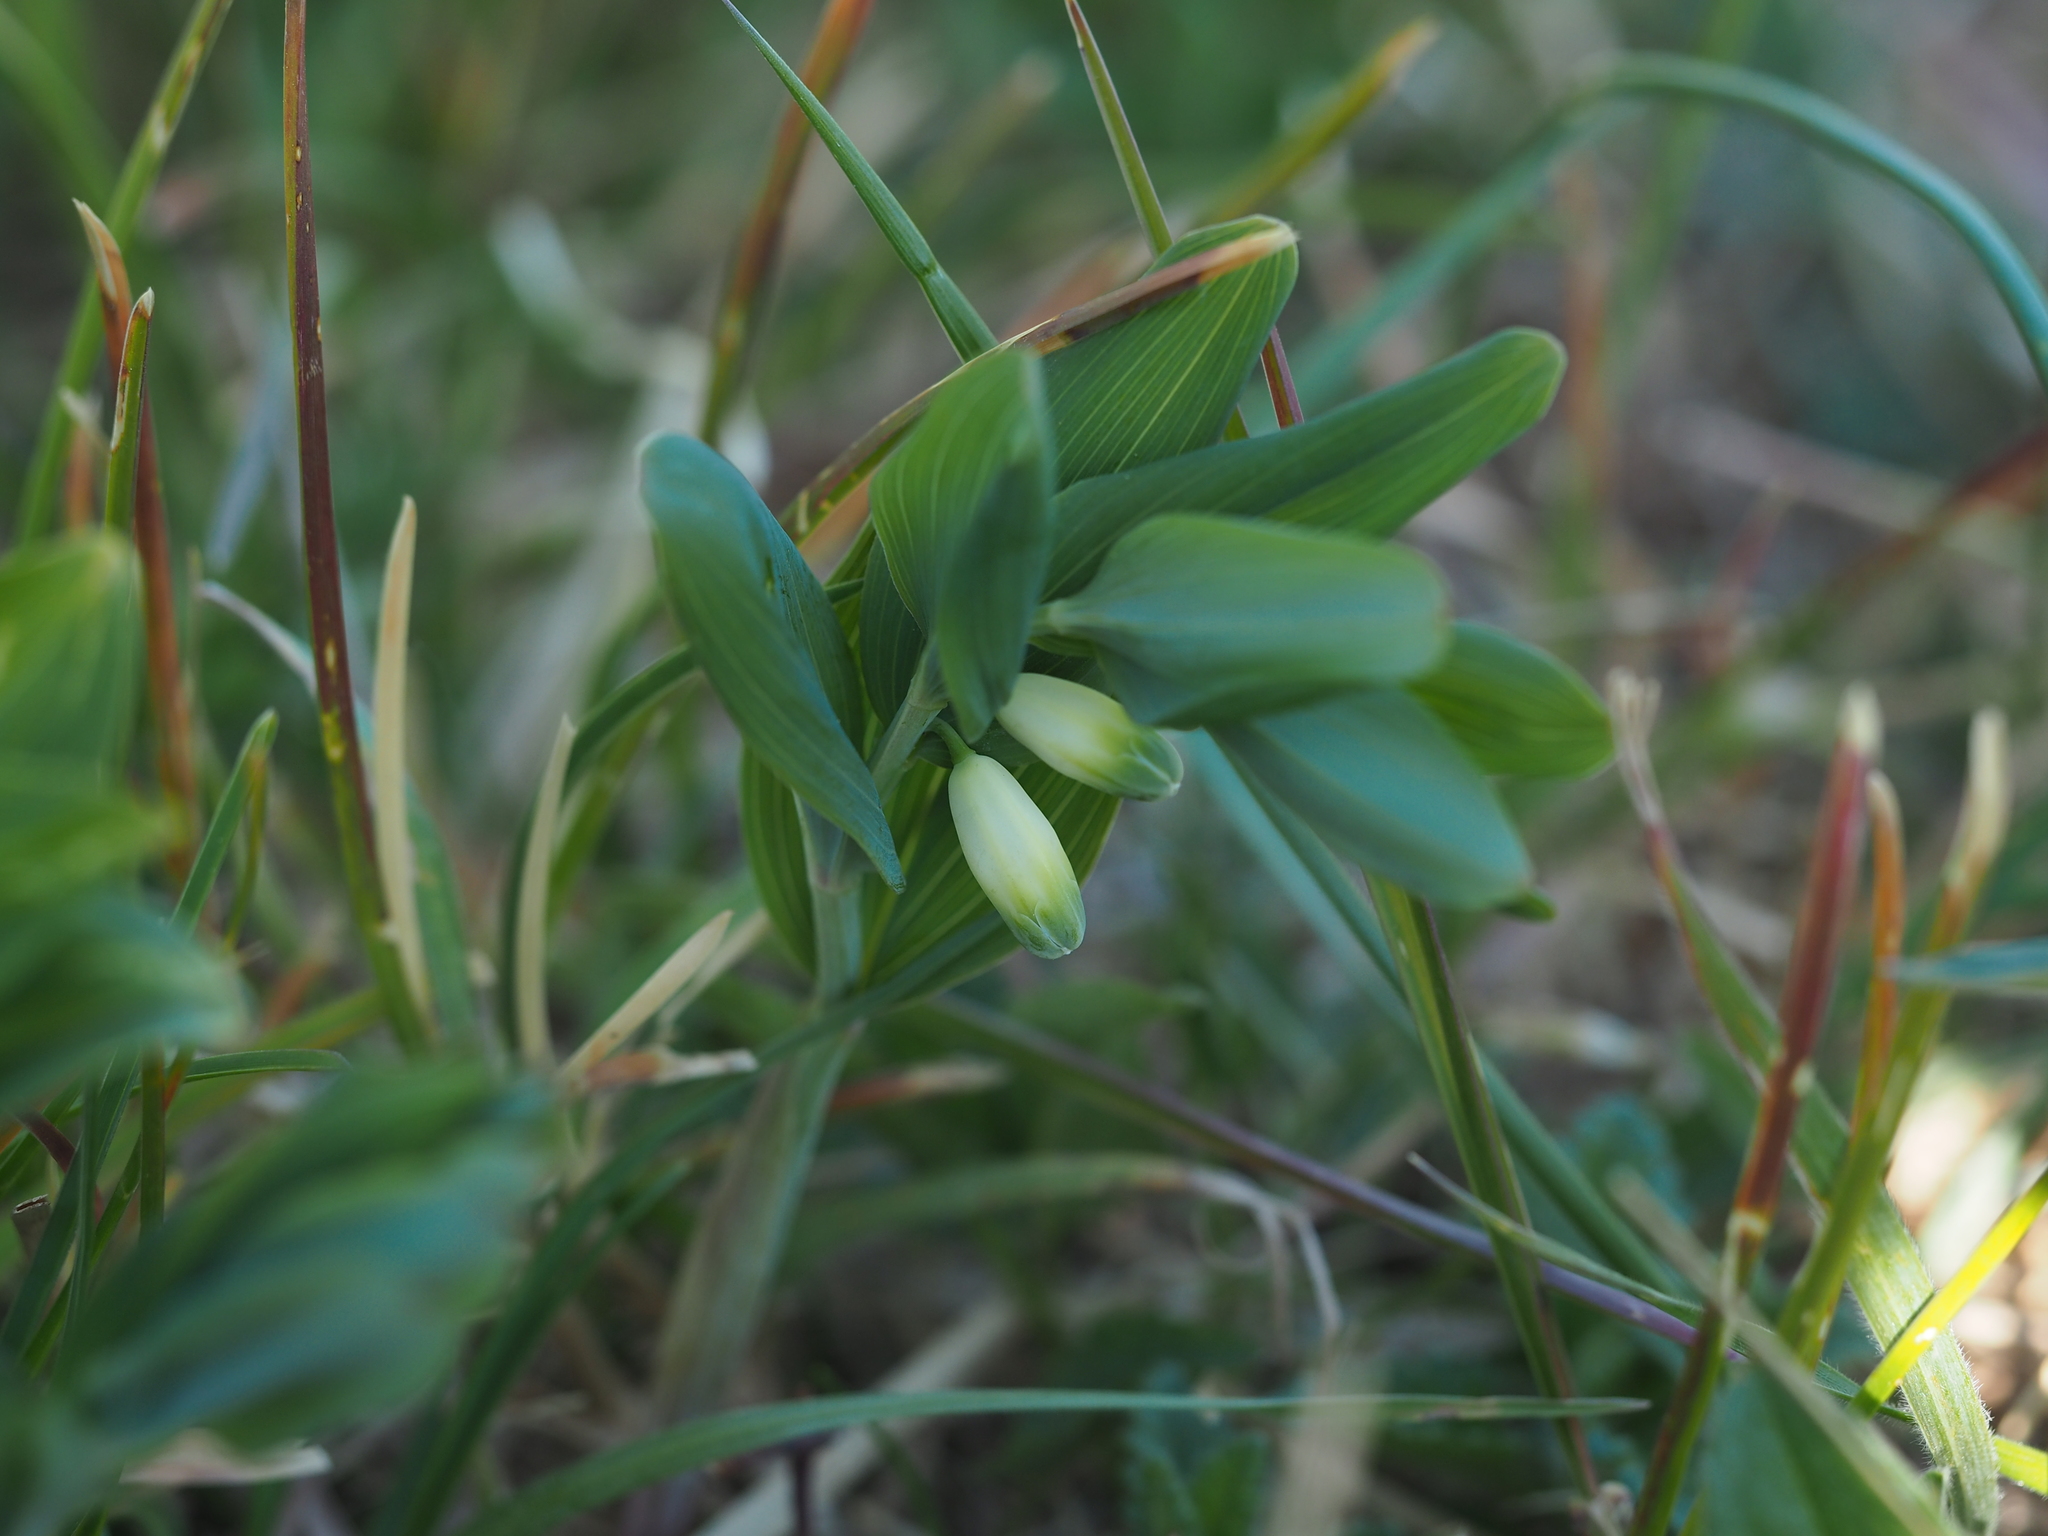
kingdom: Plantae
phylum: Tracheophyta
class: Liliopsida
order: Asparagales
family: Asparagaceae
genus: Polygonatum
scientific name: Polygonatum odoratum
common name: Angular solomon's-seal
